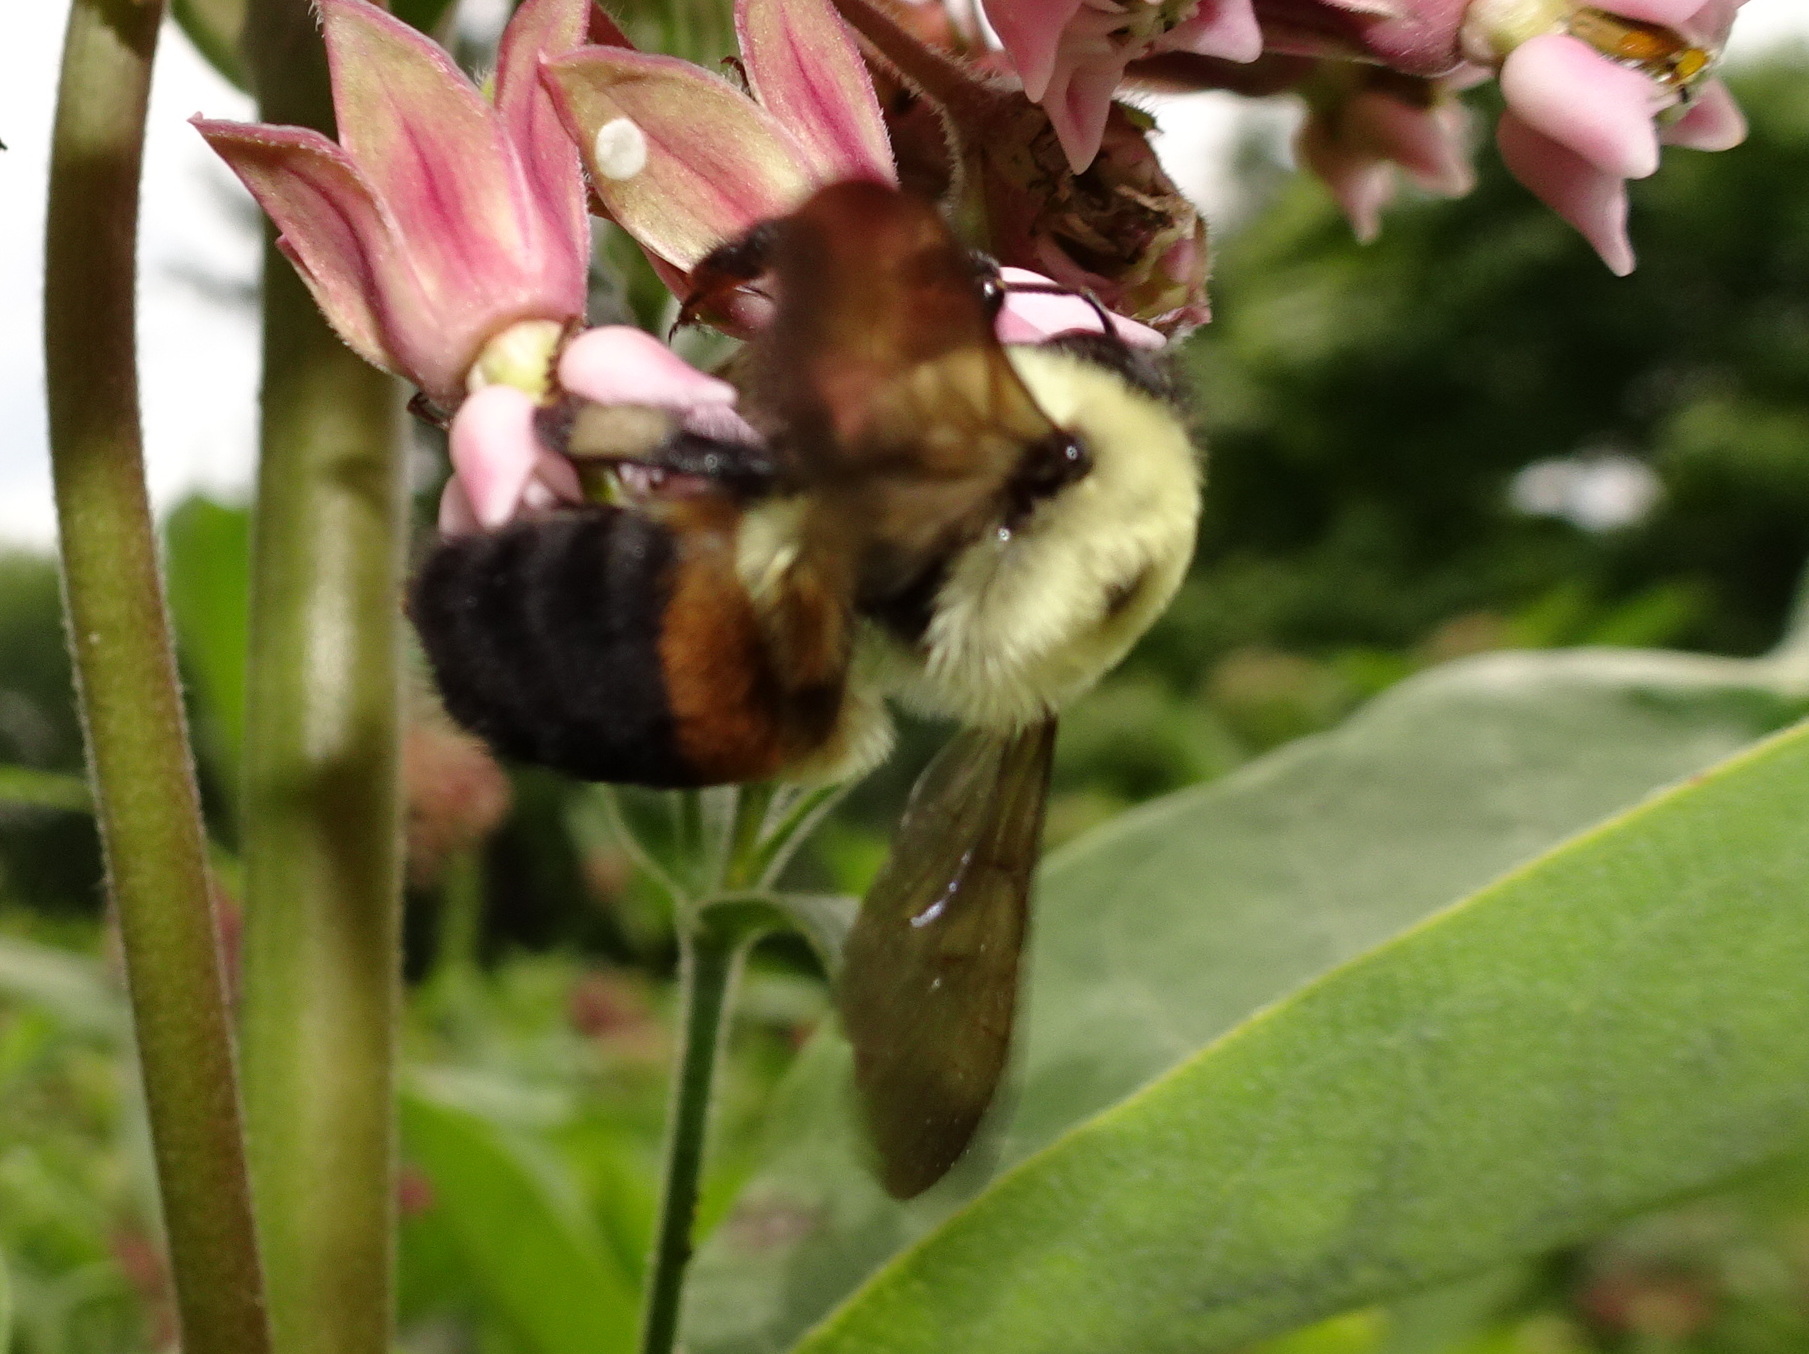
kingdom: Animalia
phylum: Arthropoda
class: Insecta
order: Hymenoptera
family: Apidae
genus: Bombus
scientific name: Bombus griseocollis
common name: Brown-belted bumble bee
